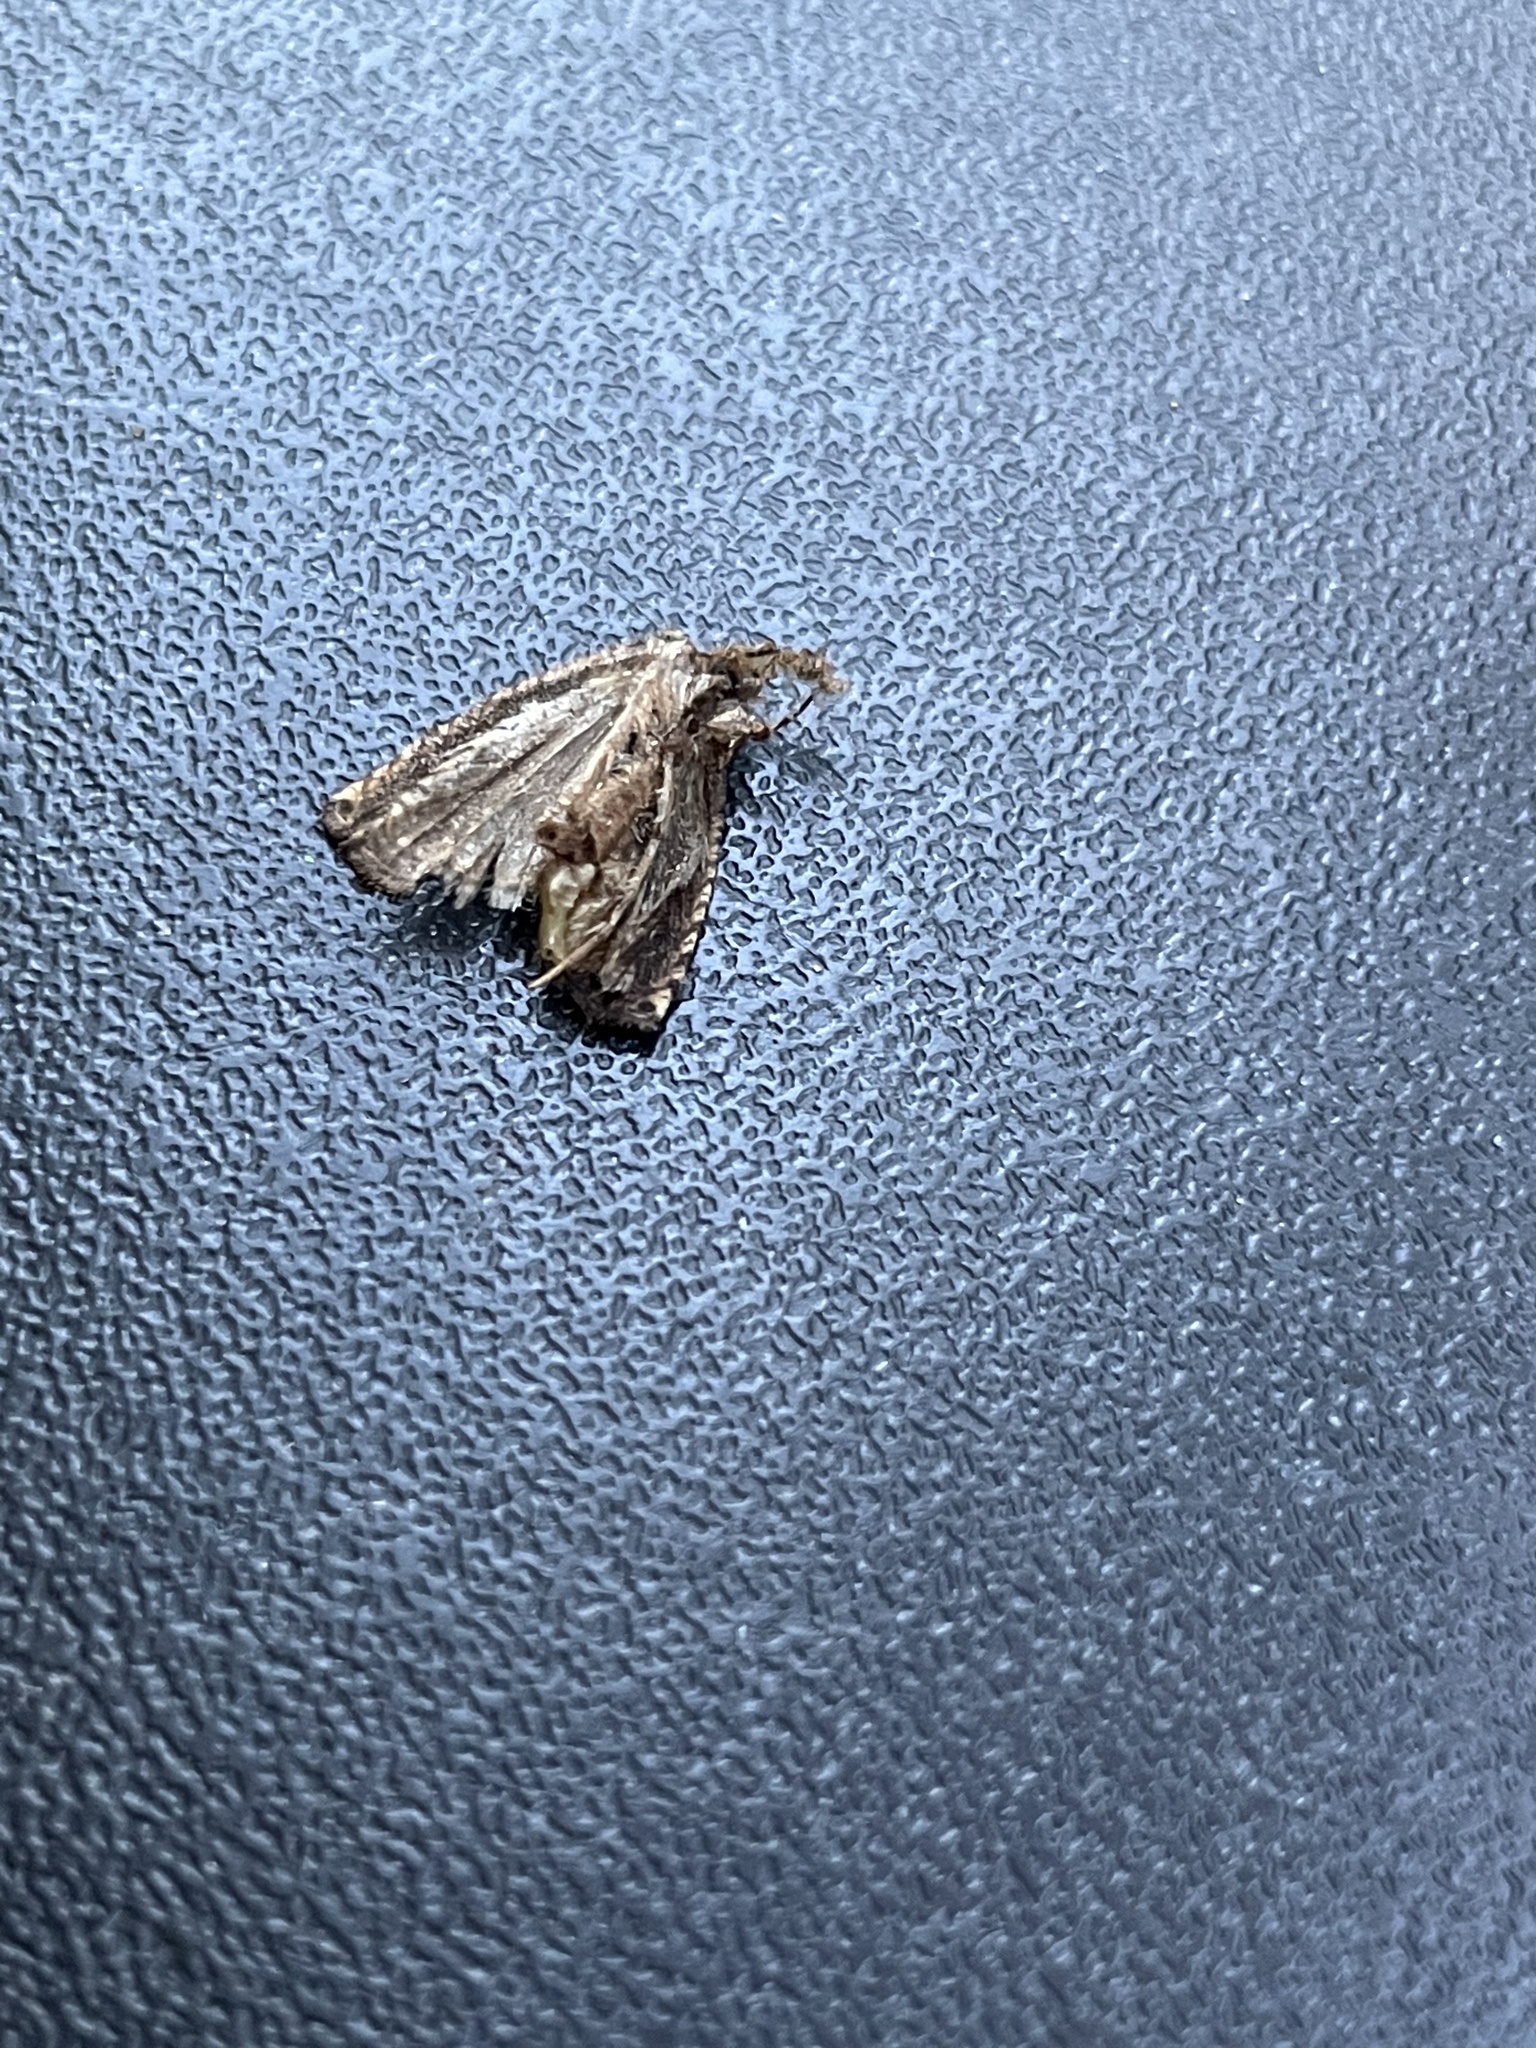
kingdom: Animalia
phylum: Arthropoda
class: Insecta
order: Lepidoptera
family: Tortricidae
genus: Epiblema
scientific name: Epiblema otiosana
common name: Bidens borer moth
